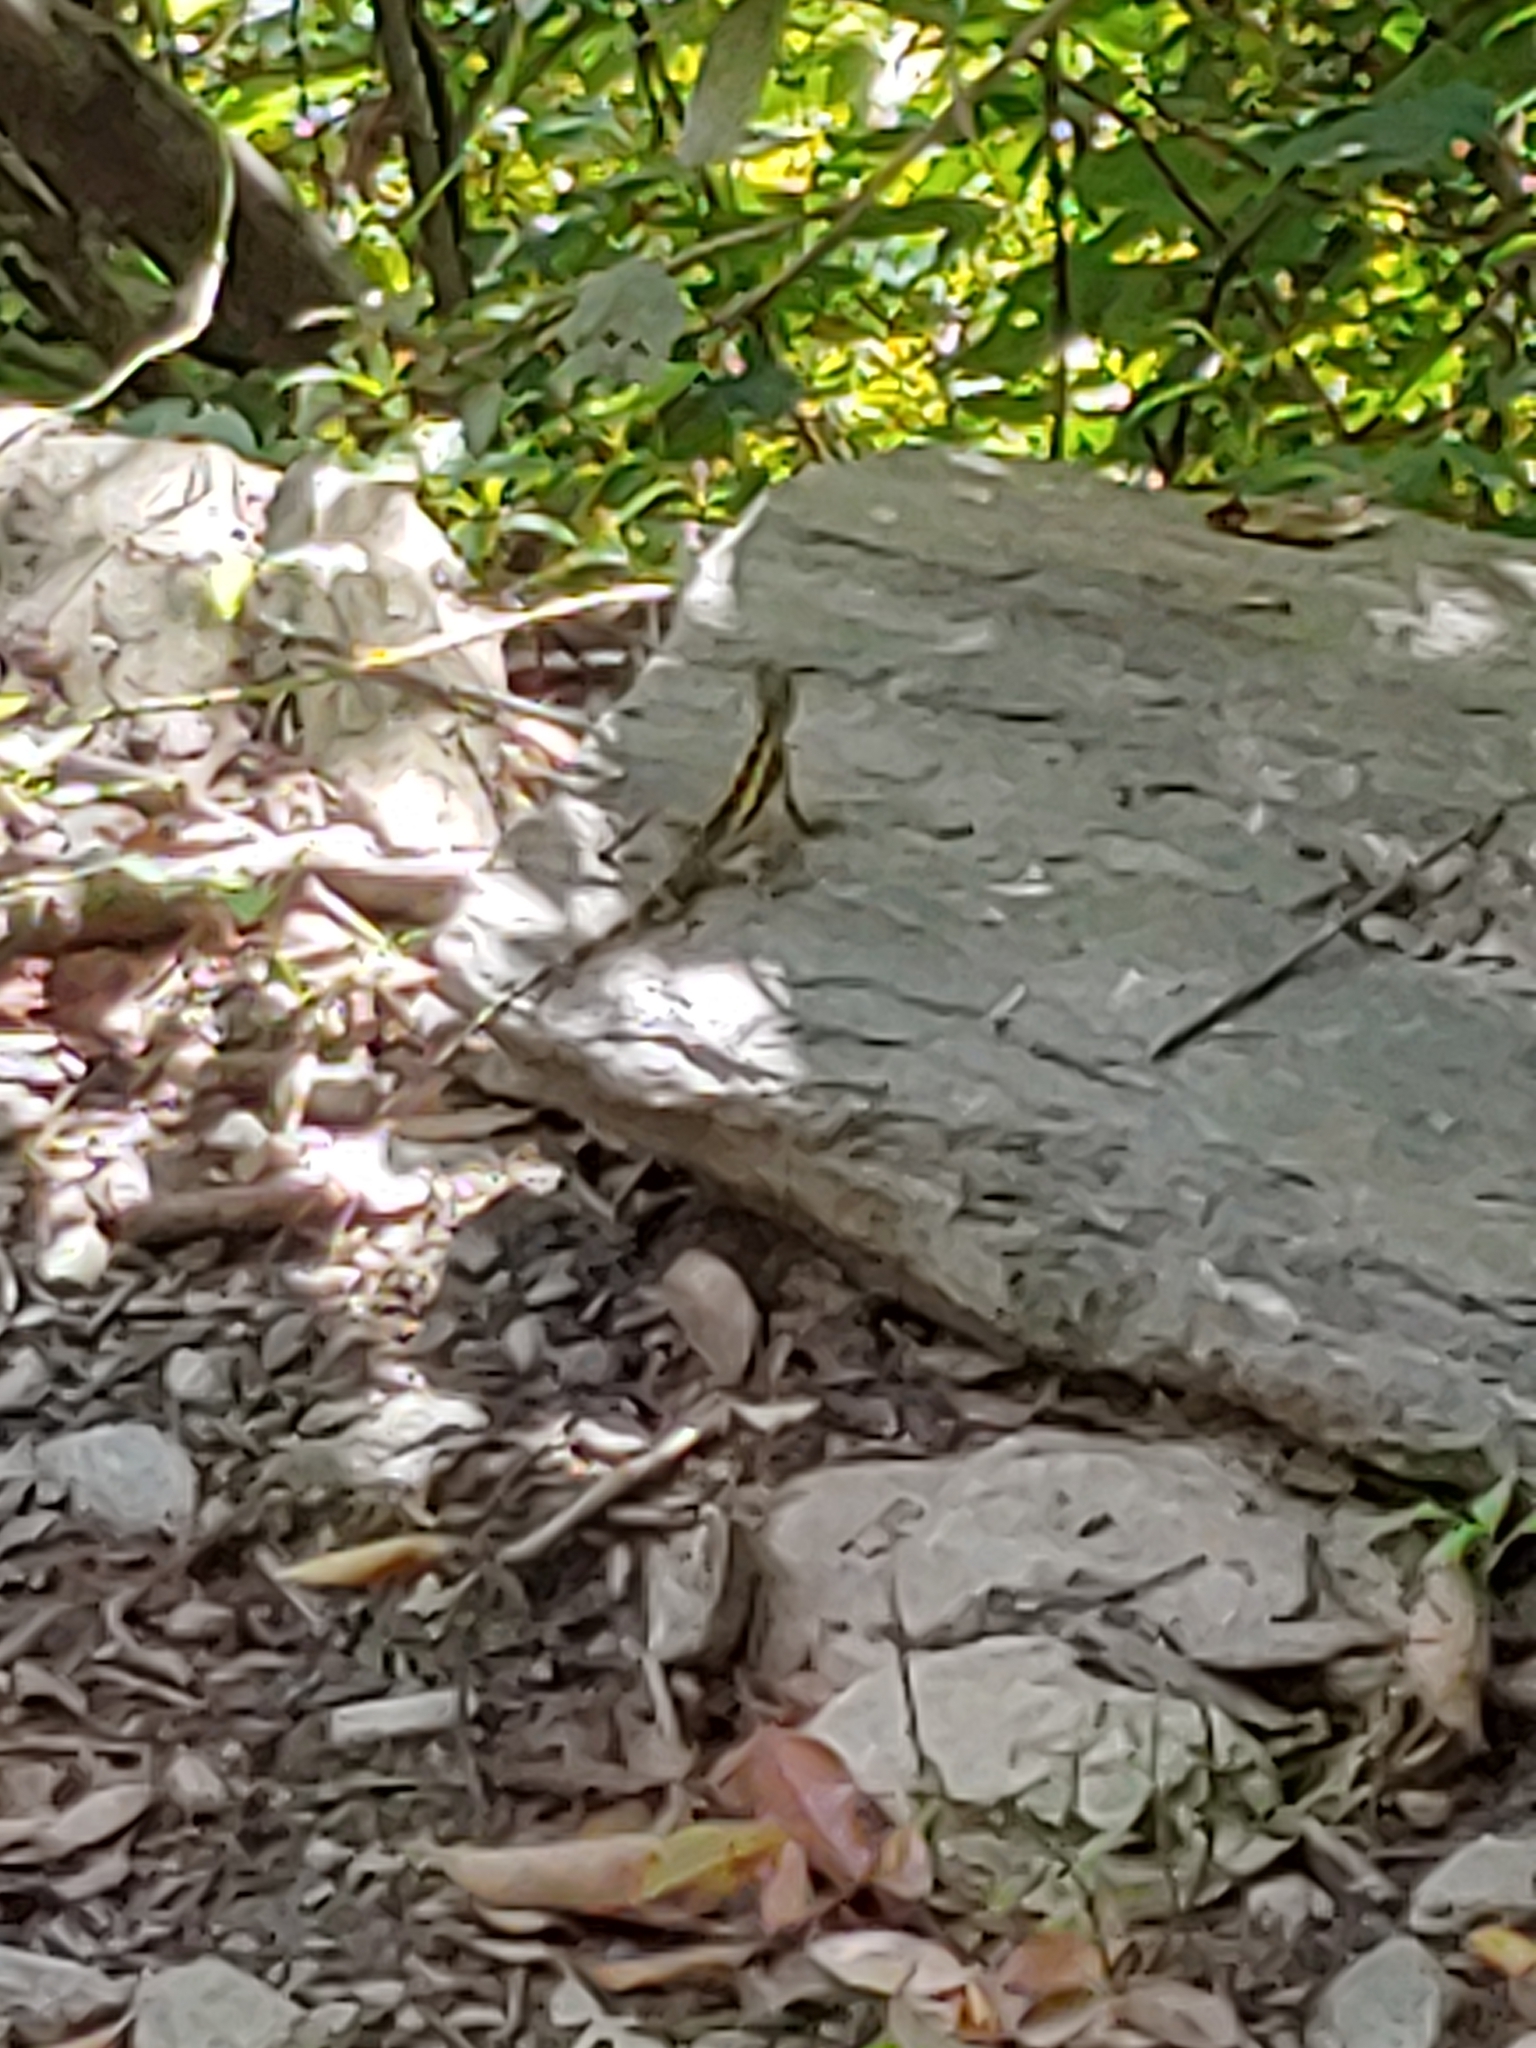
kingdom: Animalia
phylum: Chordata
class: Squamata
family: Agamidae
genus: Diploderma
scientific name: Diploderma swinhonis
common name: Taiwan japalure
